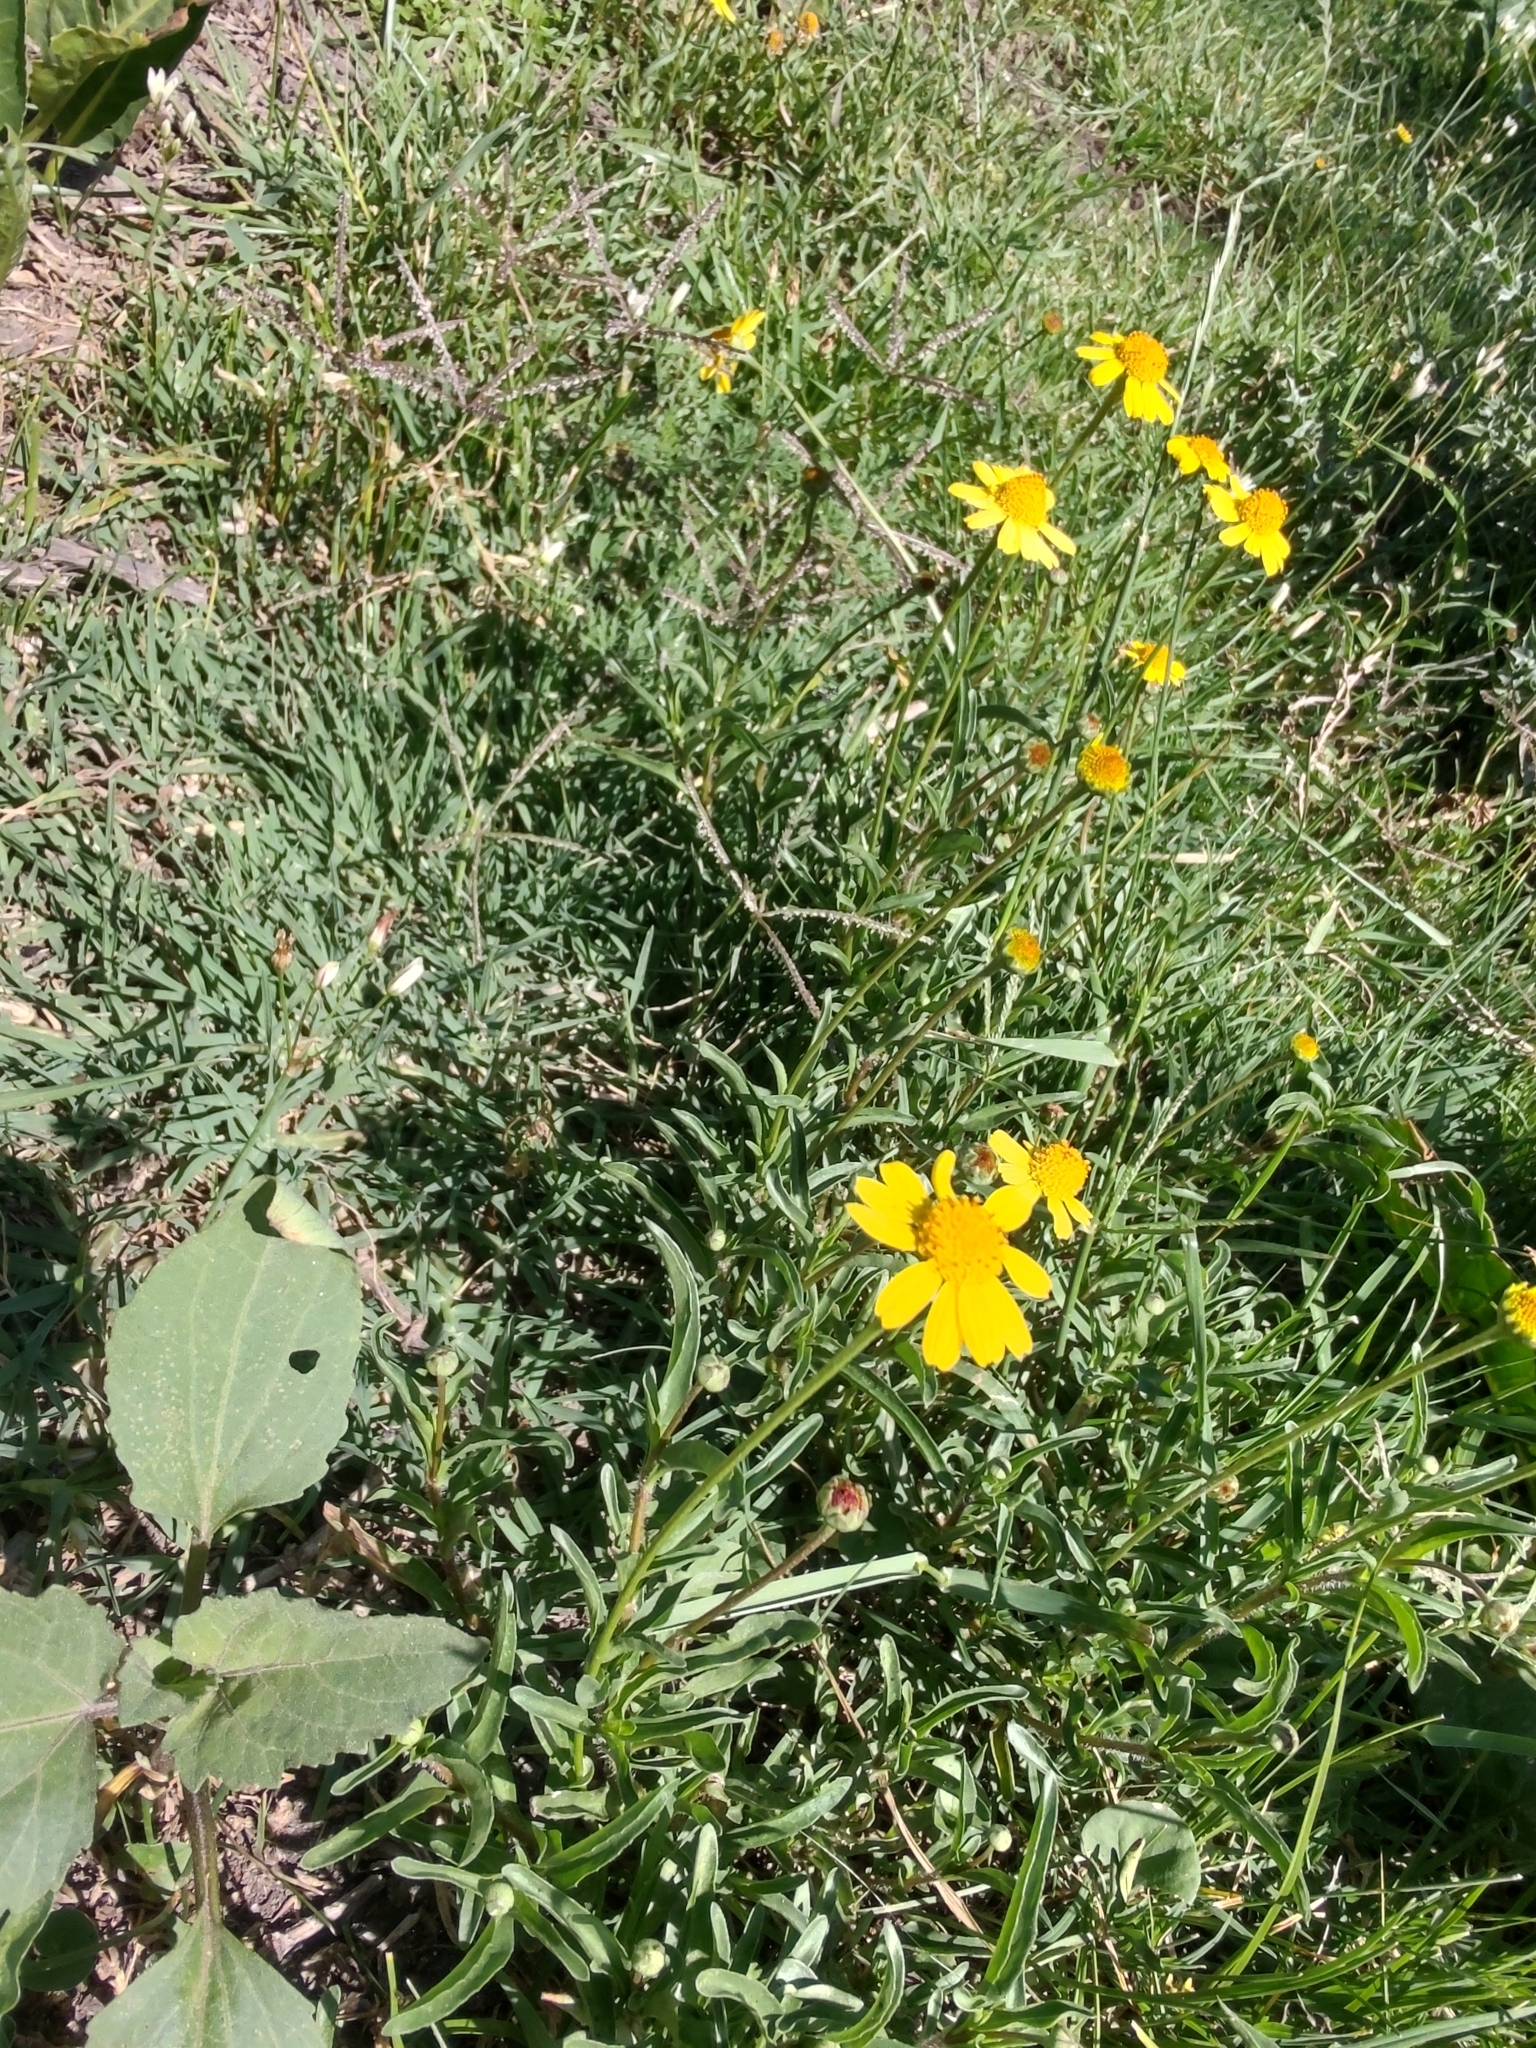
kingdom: Plantae
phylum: Tracheophyta
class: Magnoliopsida
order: Asterales
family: Asteraceae
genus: Acmella
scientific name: Acmella decumbens
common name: Creeping spotflower
